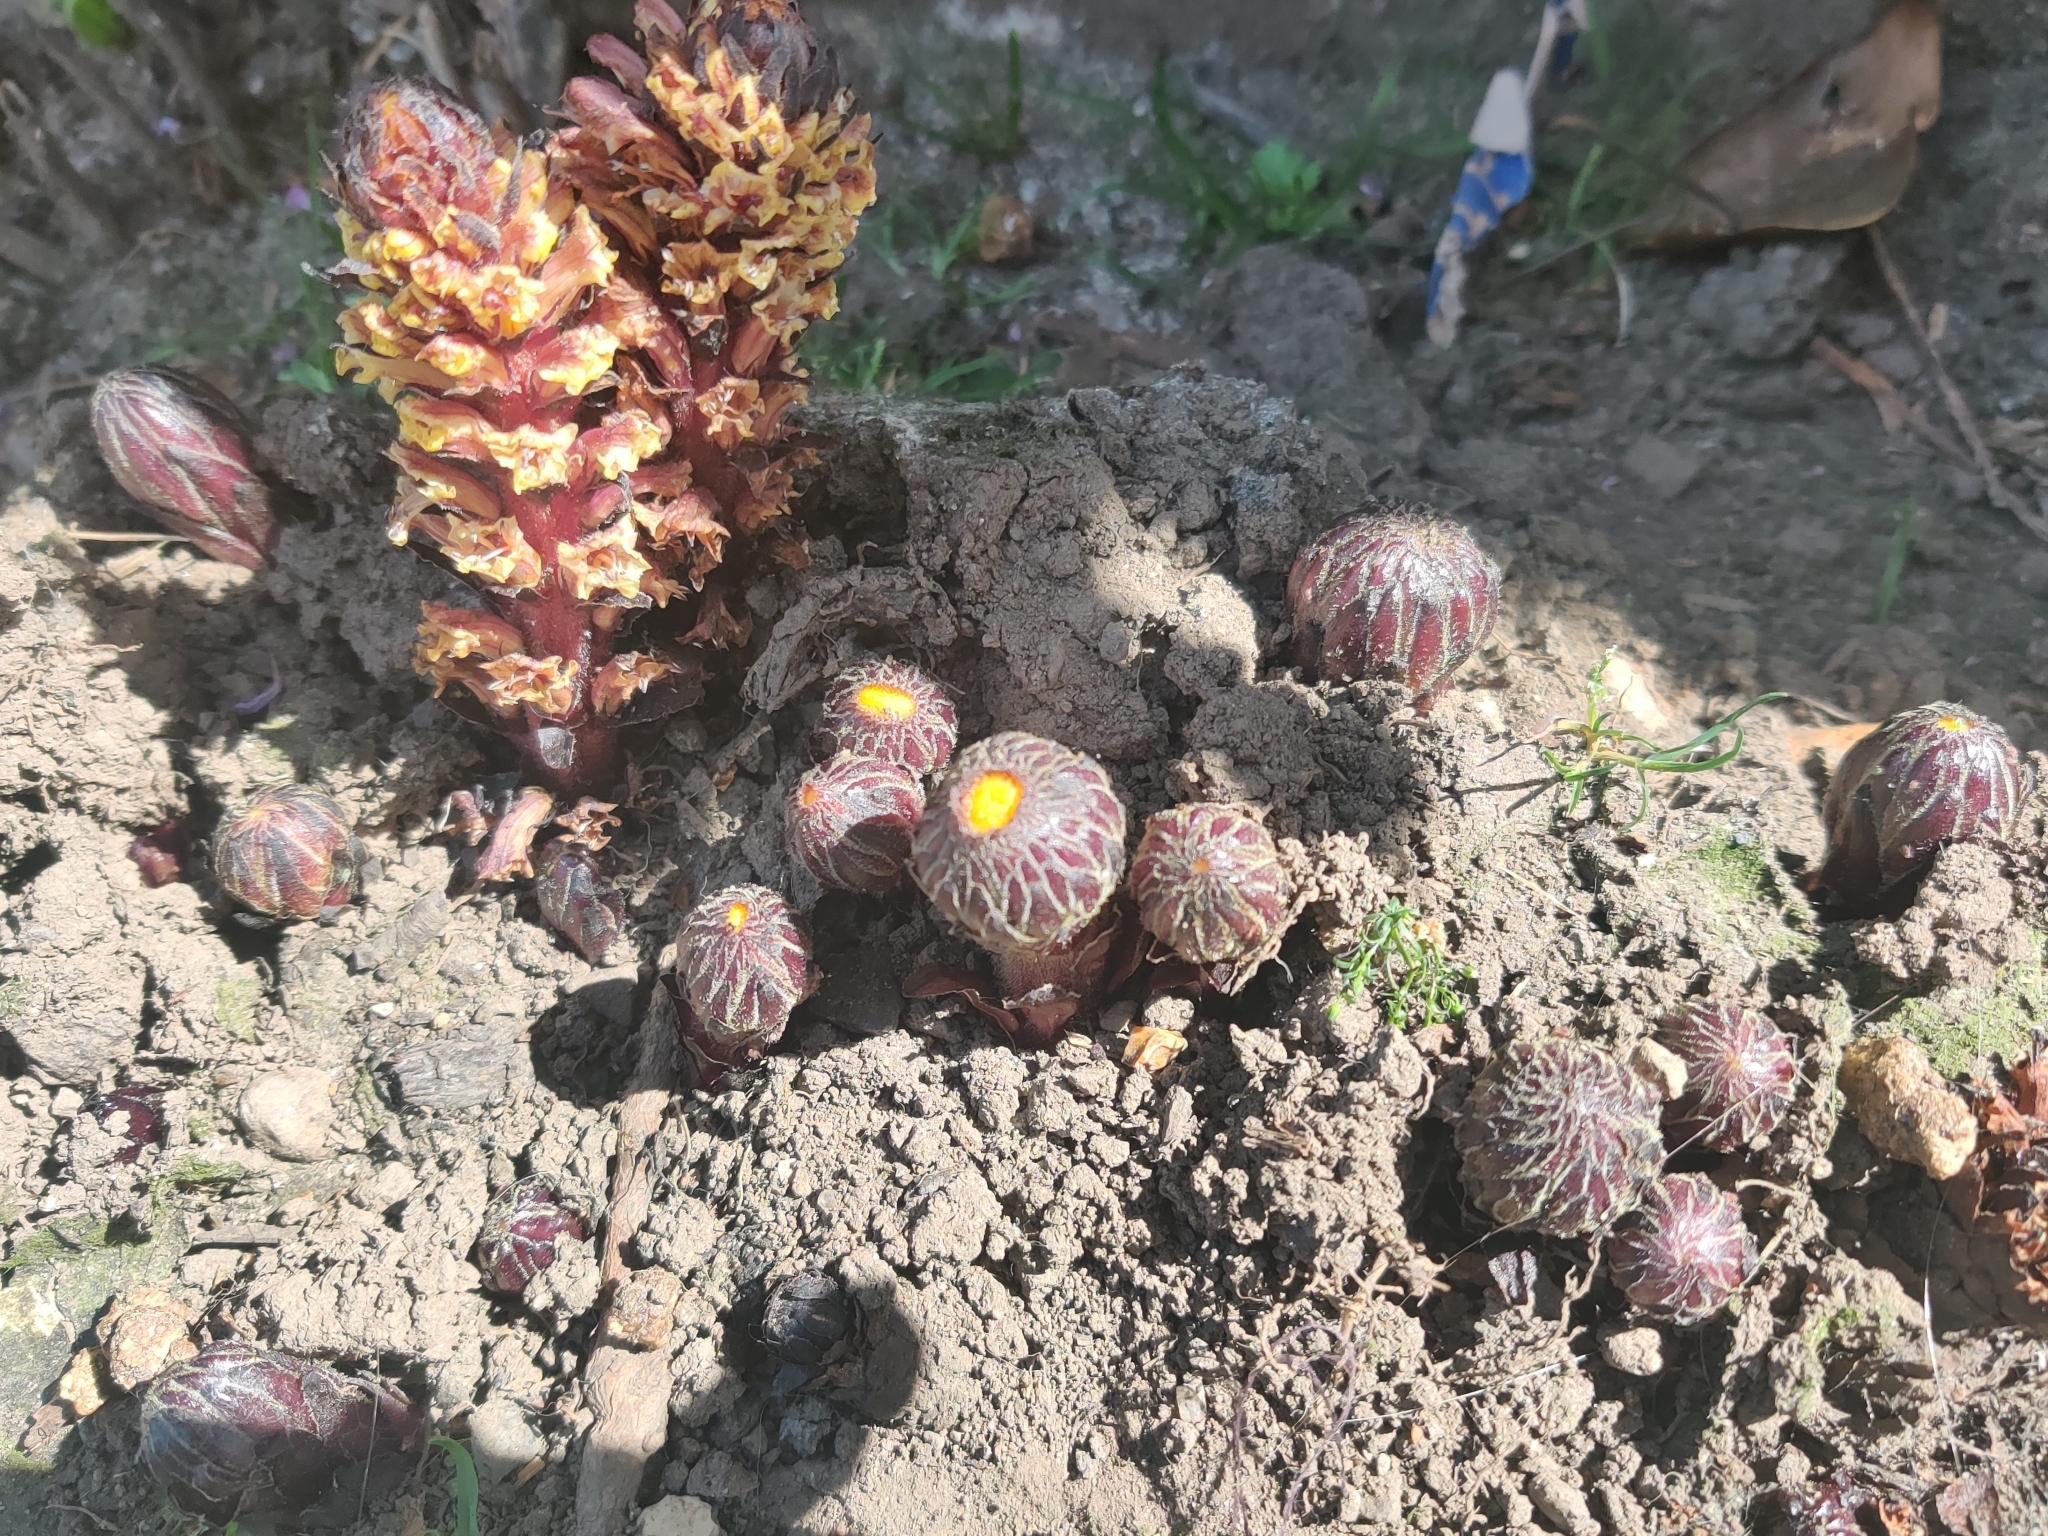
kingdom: Plantae
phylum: Tracheophyta
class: Magnoliopsida
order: Lamiales
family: Orobanchaceae
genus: Orobanche
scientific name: Orobanche hederae
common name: Ivy broomrape
